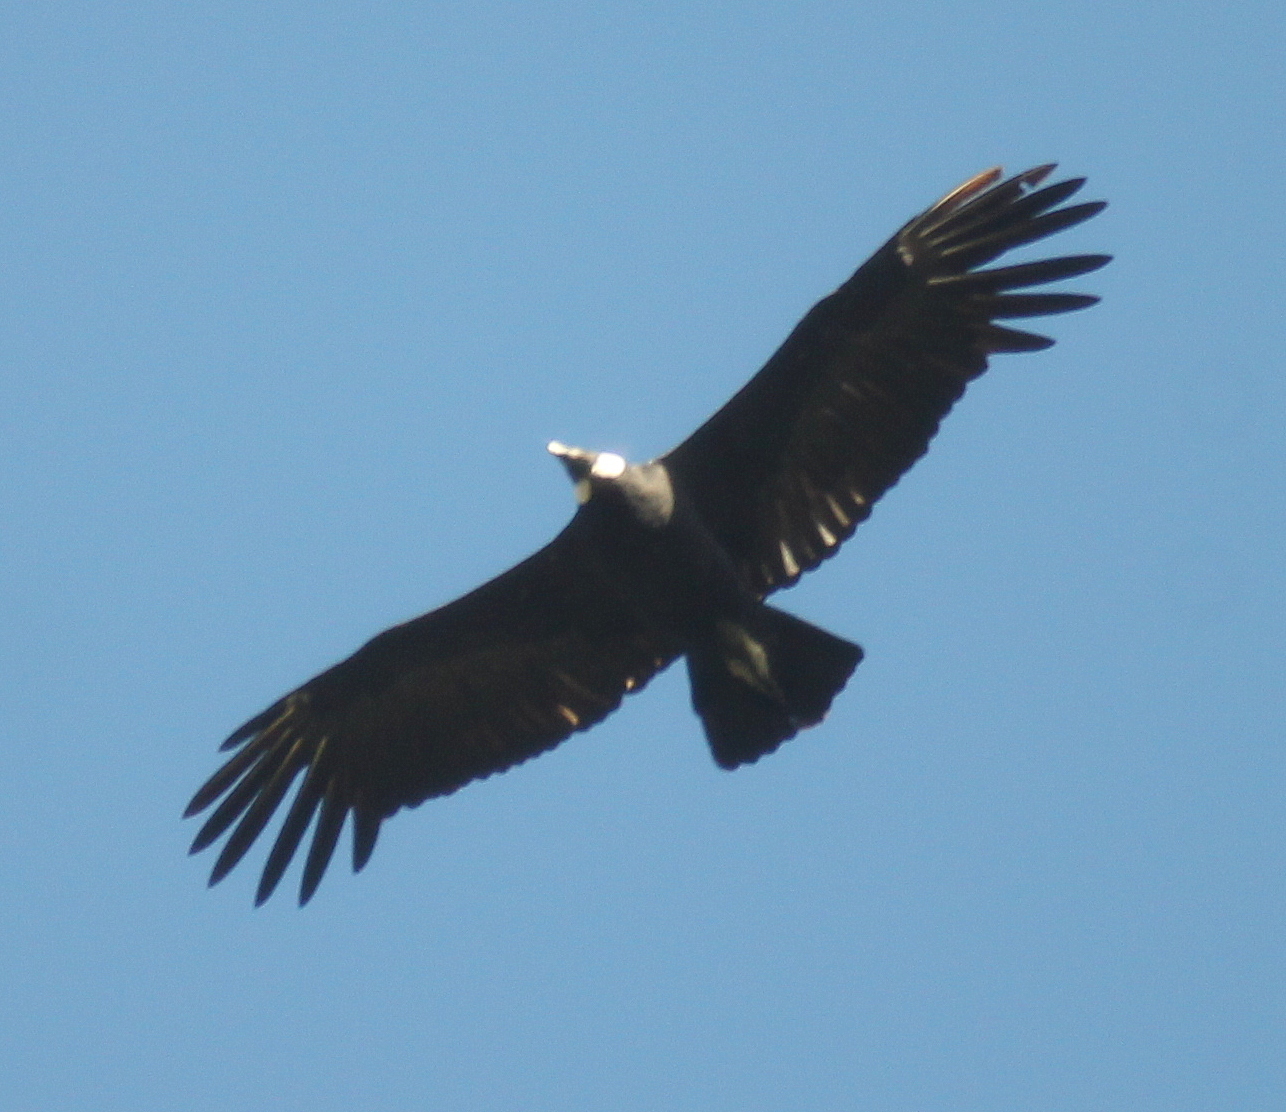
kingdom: Animalia
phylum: Chordata
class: Aves
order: Accipitriformes
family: Cathartidae
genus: Vultur
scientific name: Vultur gryphus
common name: Andean condor
